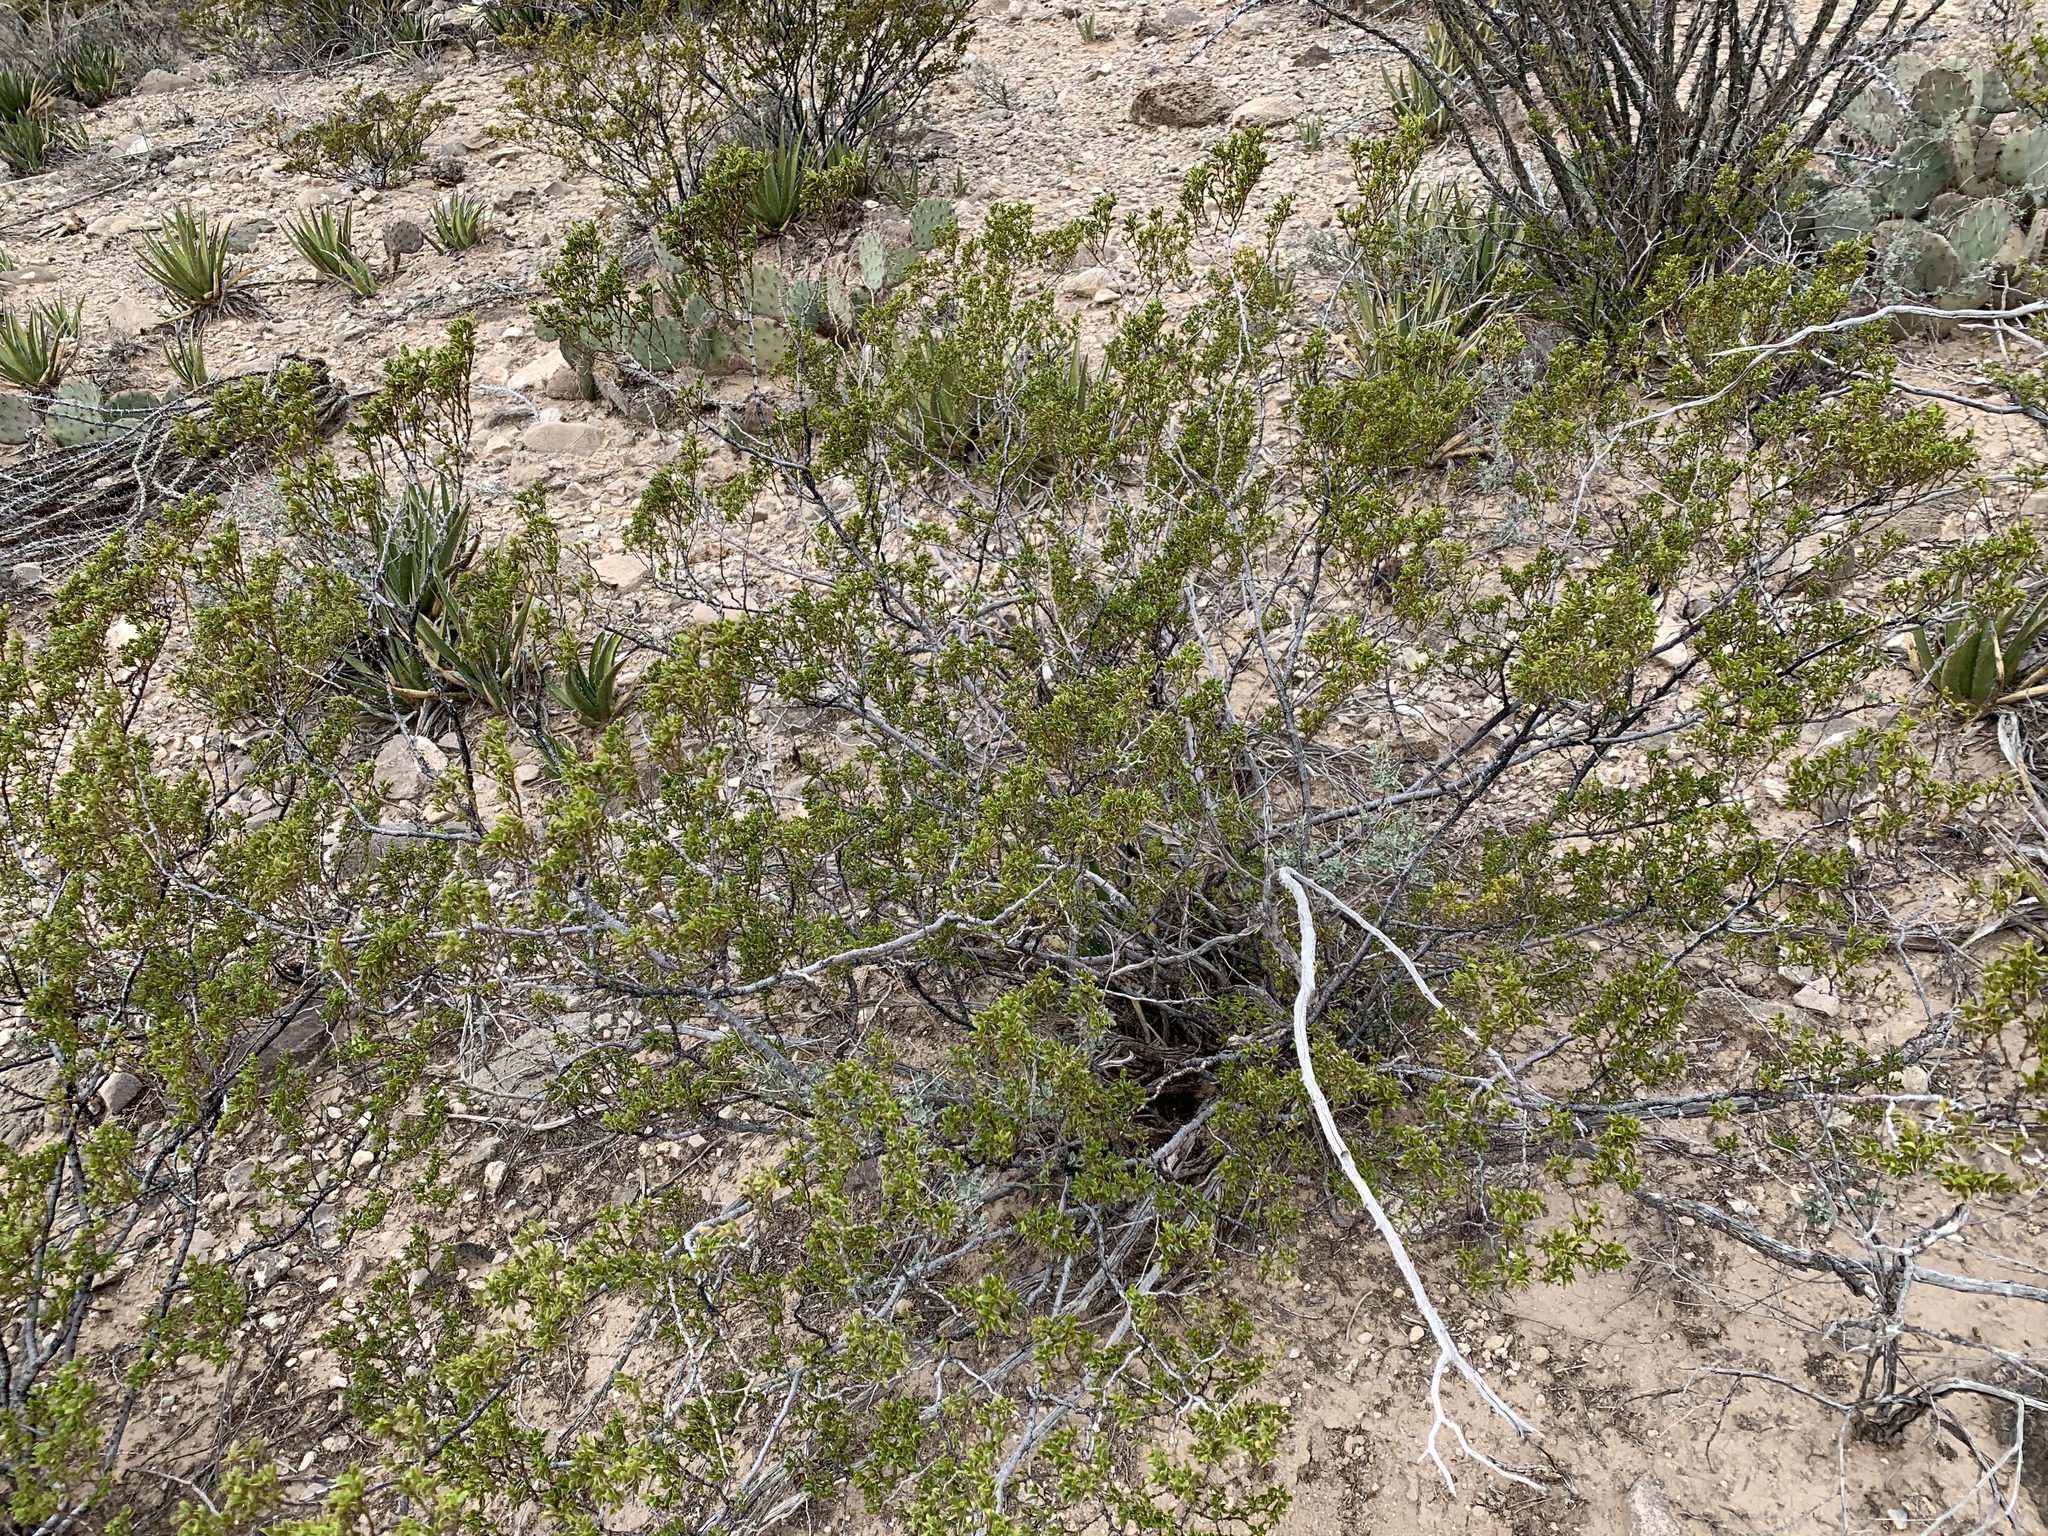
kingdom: Plantae
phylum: Tracheophyta
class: Magnoliopsida
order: Zygophyllales
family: Zygophyllaceae
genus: Larrea
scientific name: Larrea tridentata
